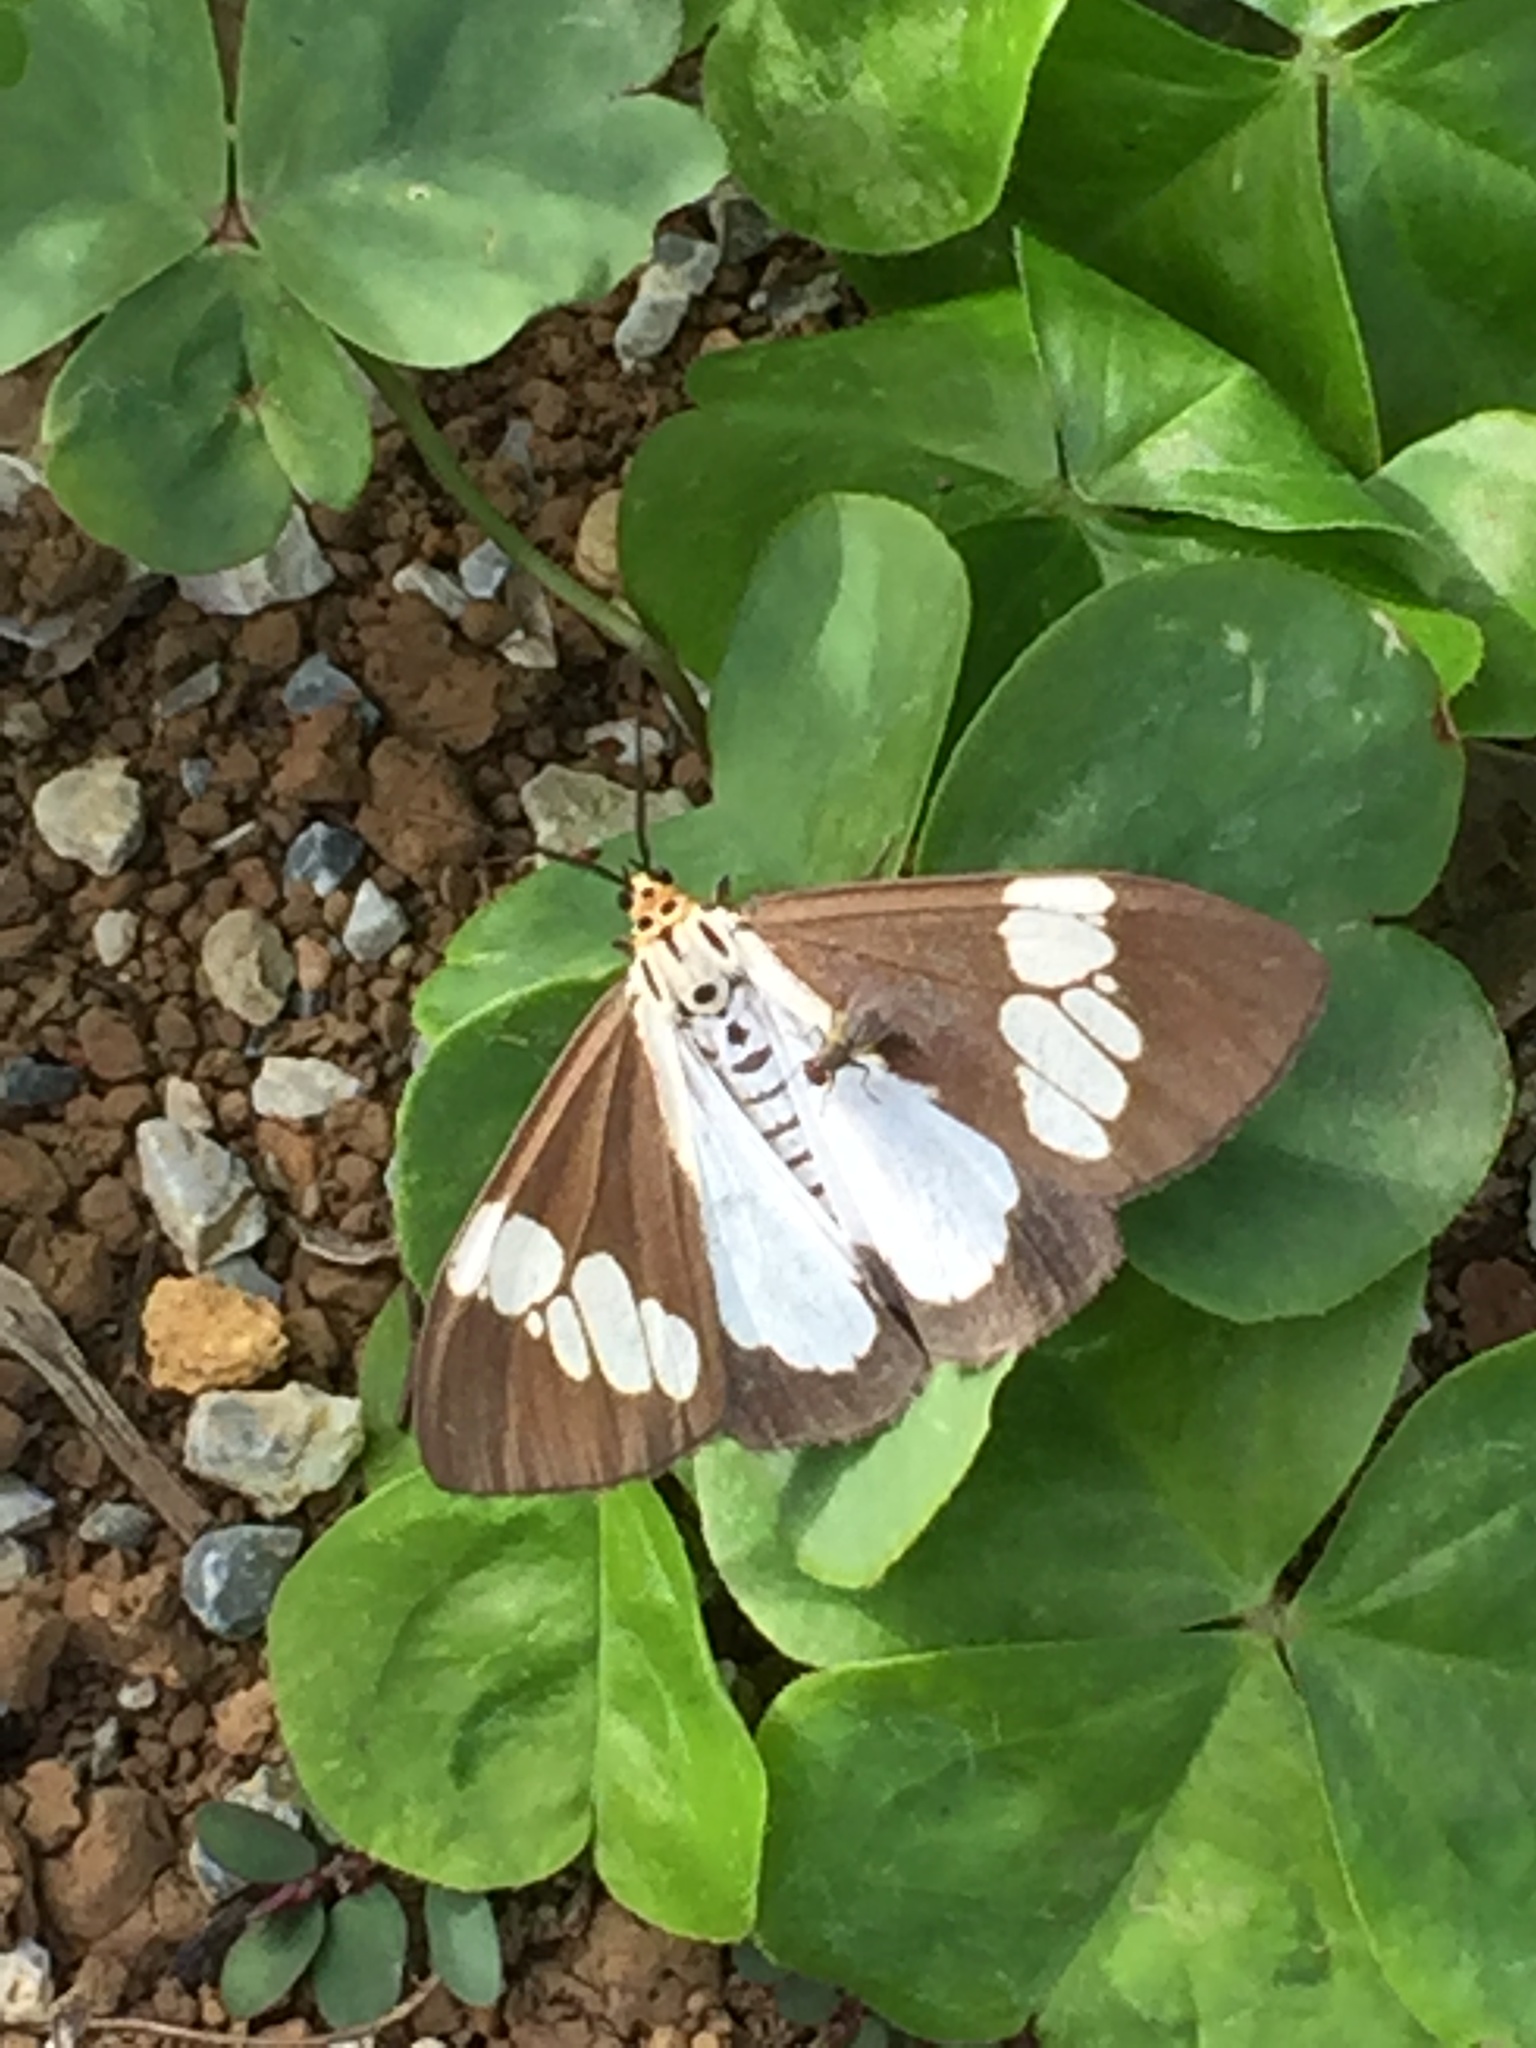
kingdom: Animalia
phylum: Arthropoda
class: Insecta
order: Lepidoptera
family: Erebidae
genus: Nyctemera
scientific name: Nyctemera lacticinia
